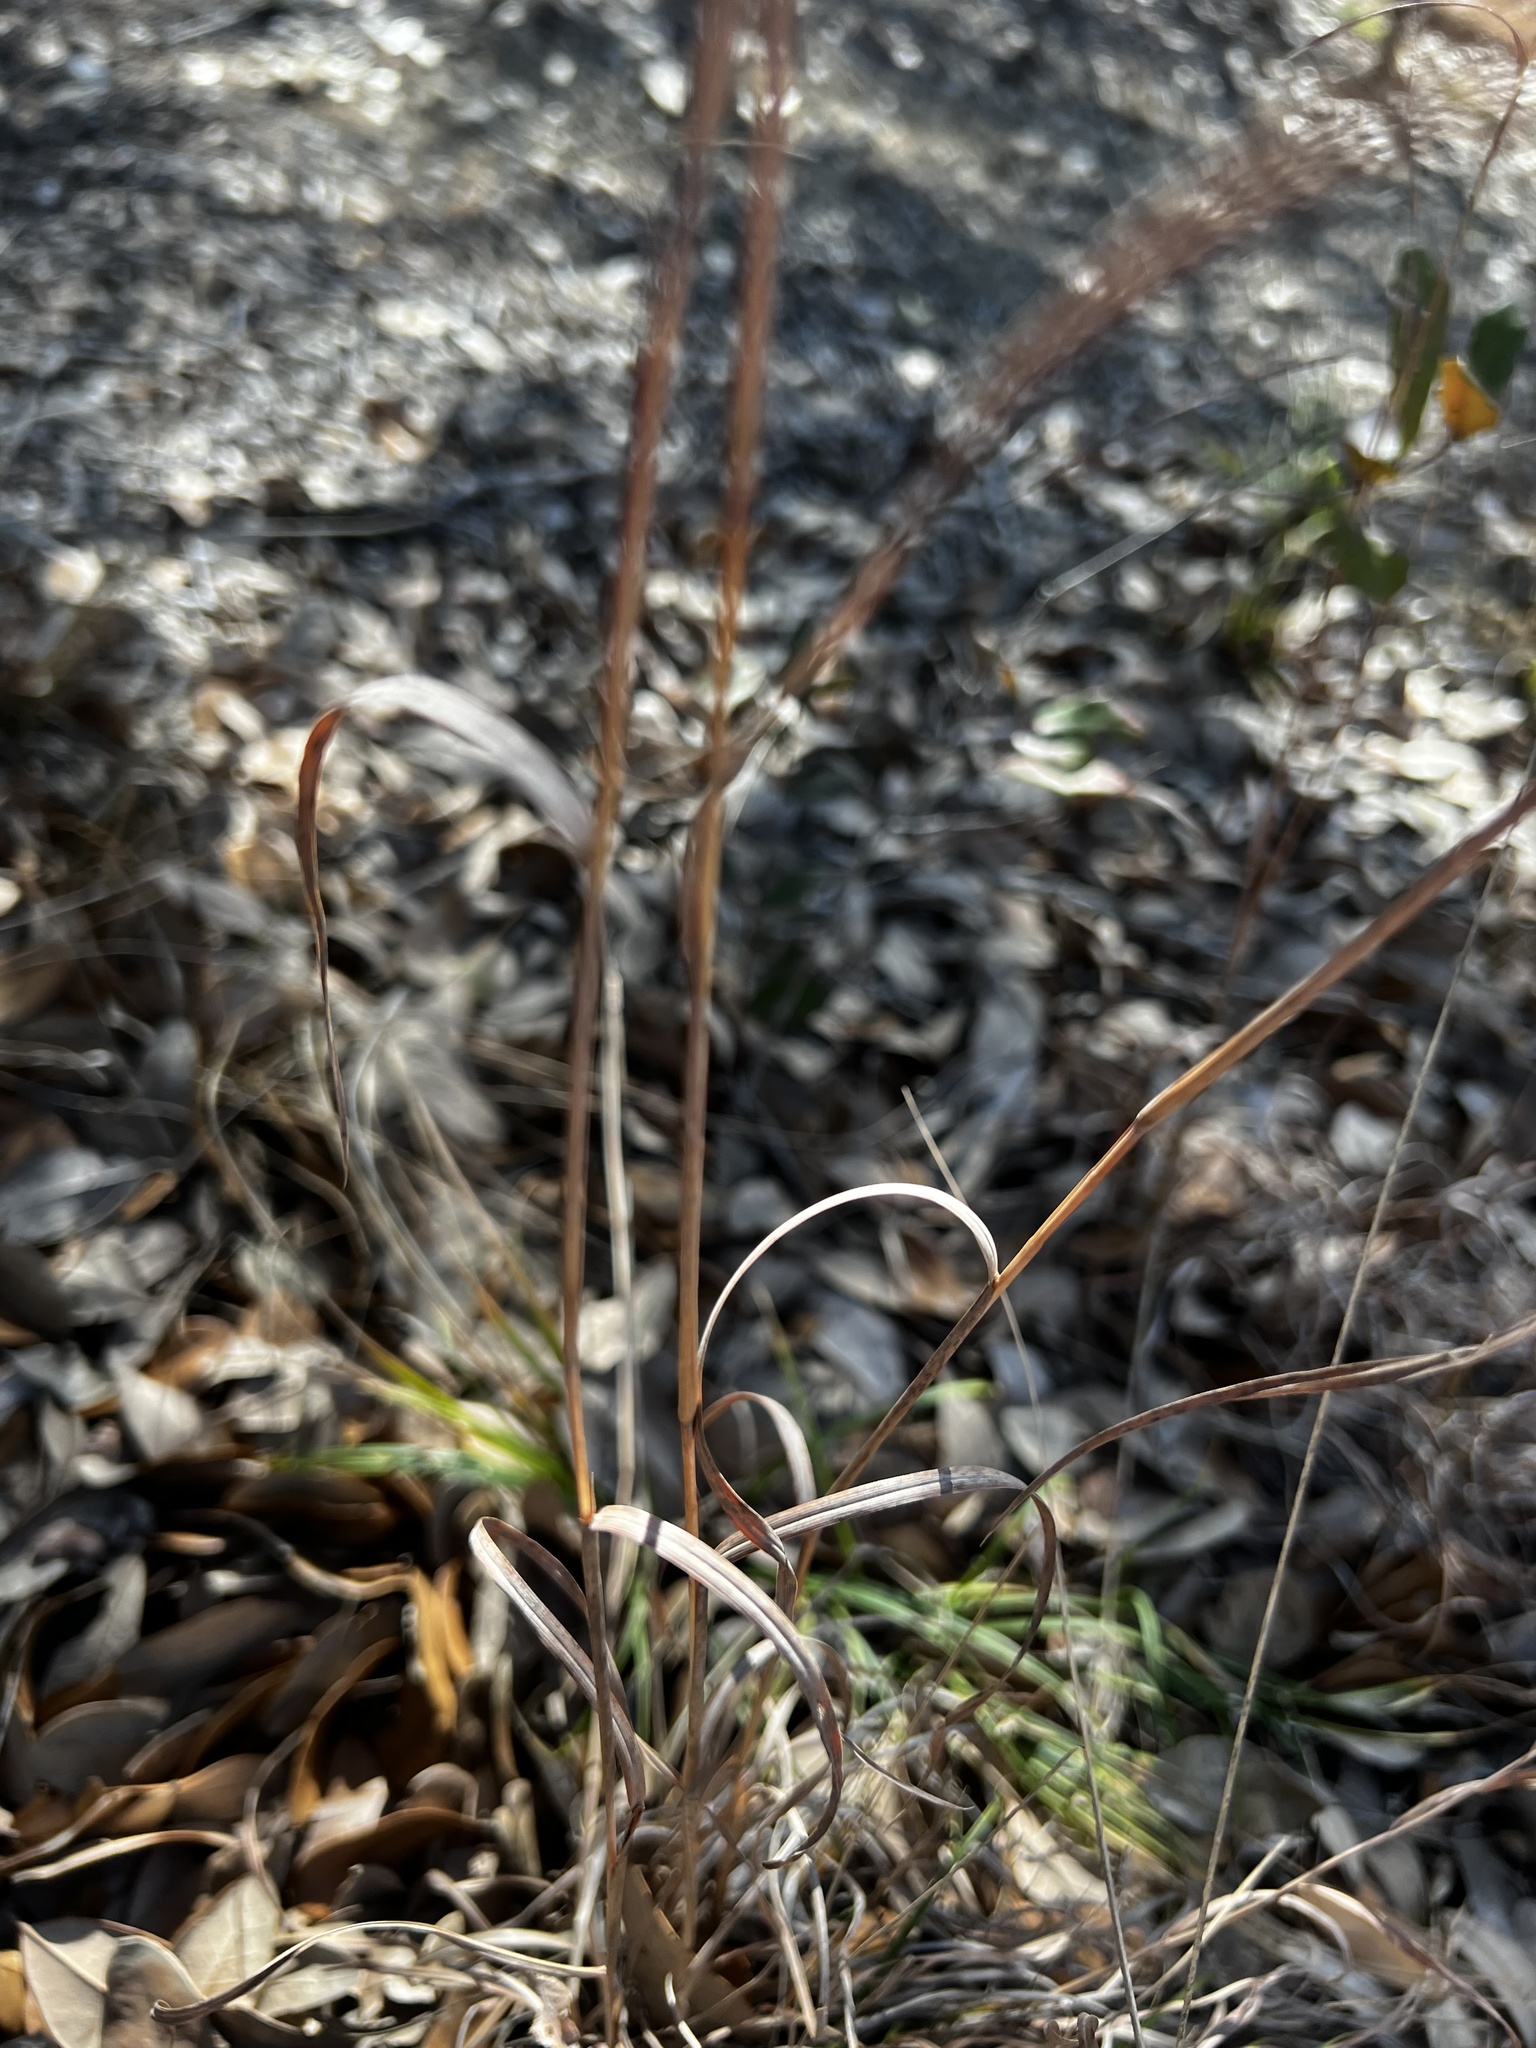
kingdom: Plantae
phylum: Tracheophyta
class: Liliopsida
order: Poales
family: Poaceae
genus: Schizachyrium
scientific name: Schizachyrium scoparium
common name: Little bluestem
